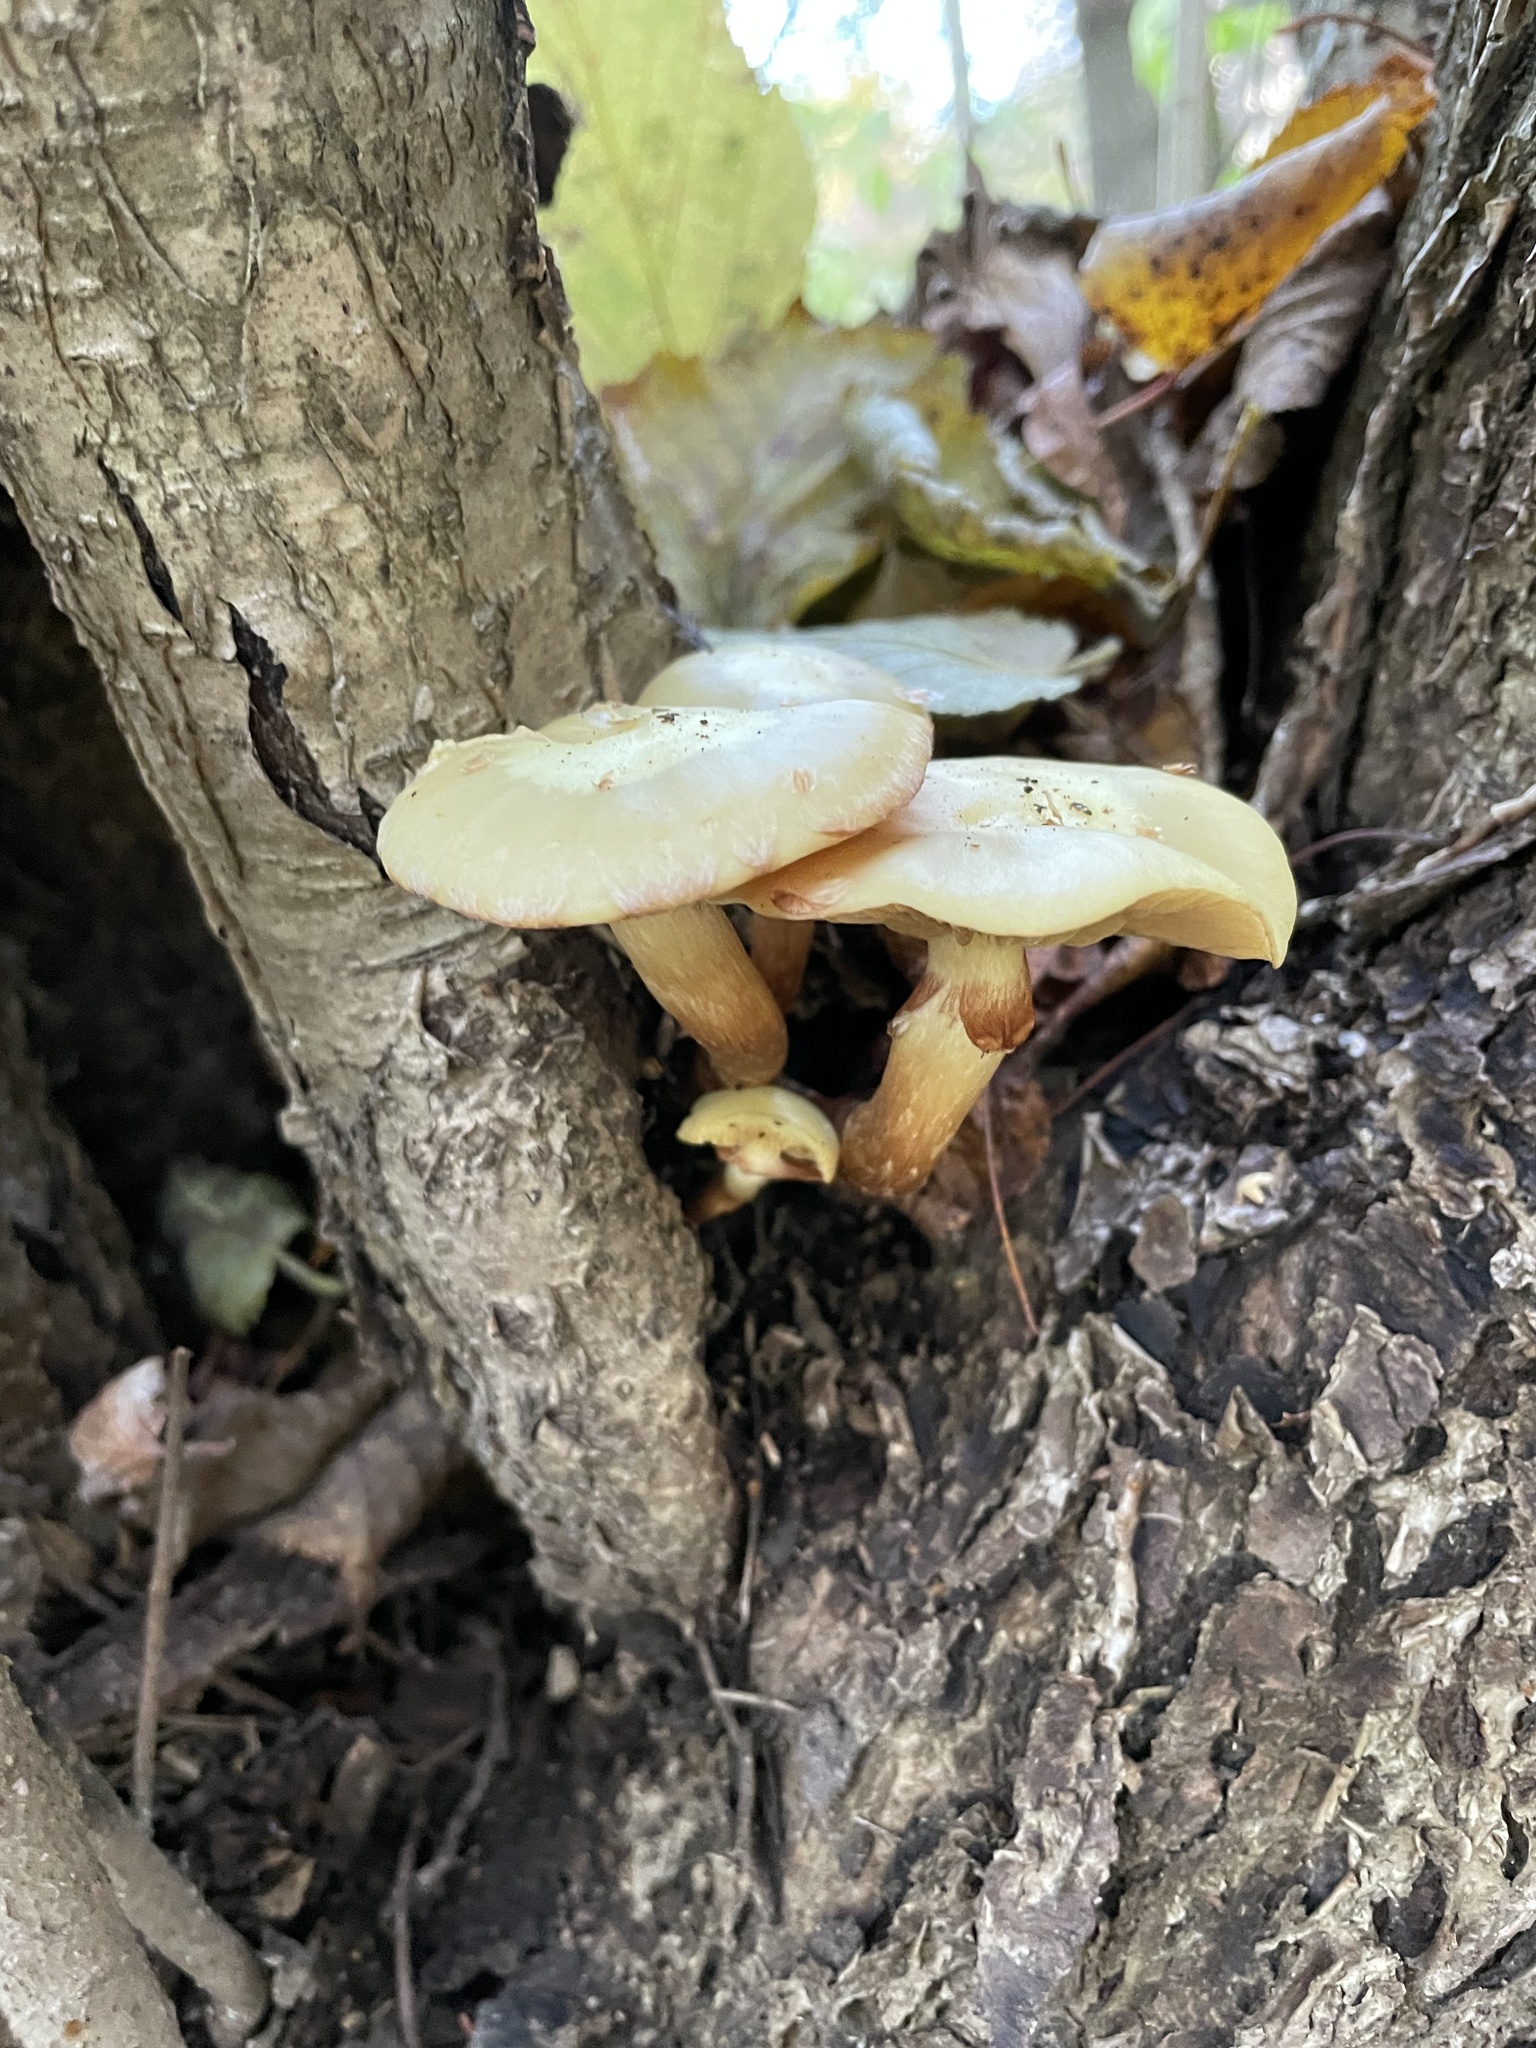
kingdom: Fungi
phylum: Basidiomycota
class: Agaricomycetes
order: Agaricales
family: Hymenogastraceae
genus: Flammula
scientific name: Flammula alnicola
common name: Alder scalycap
